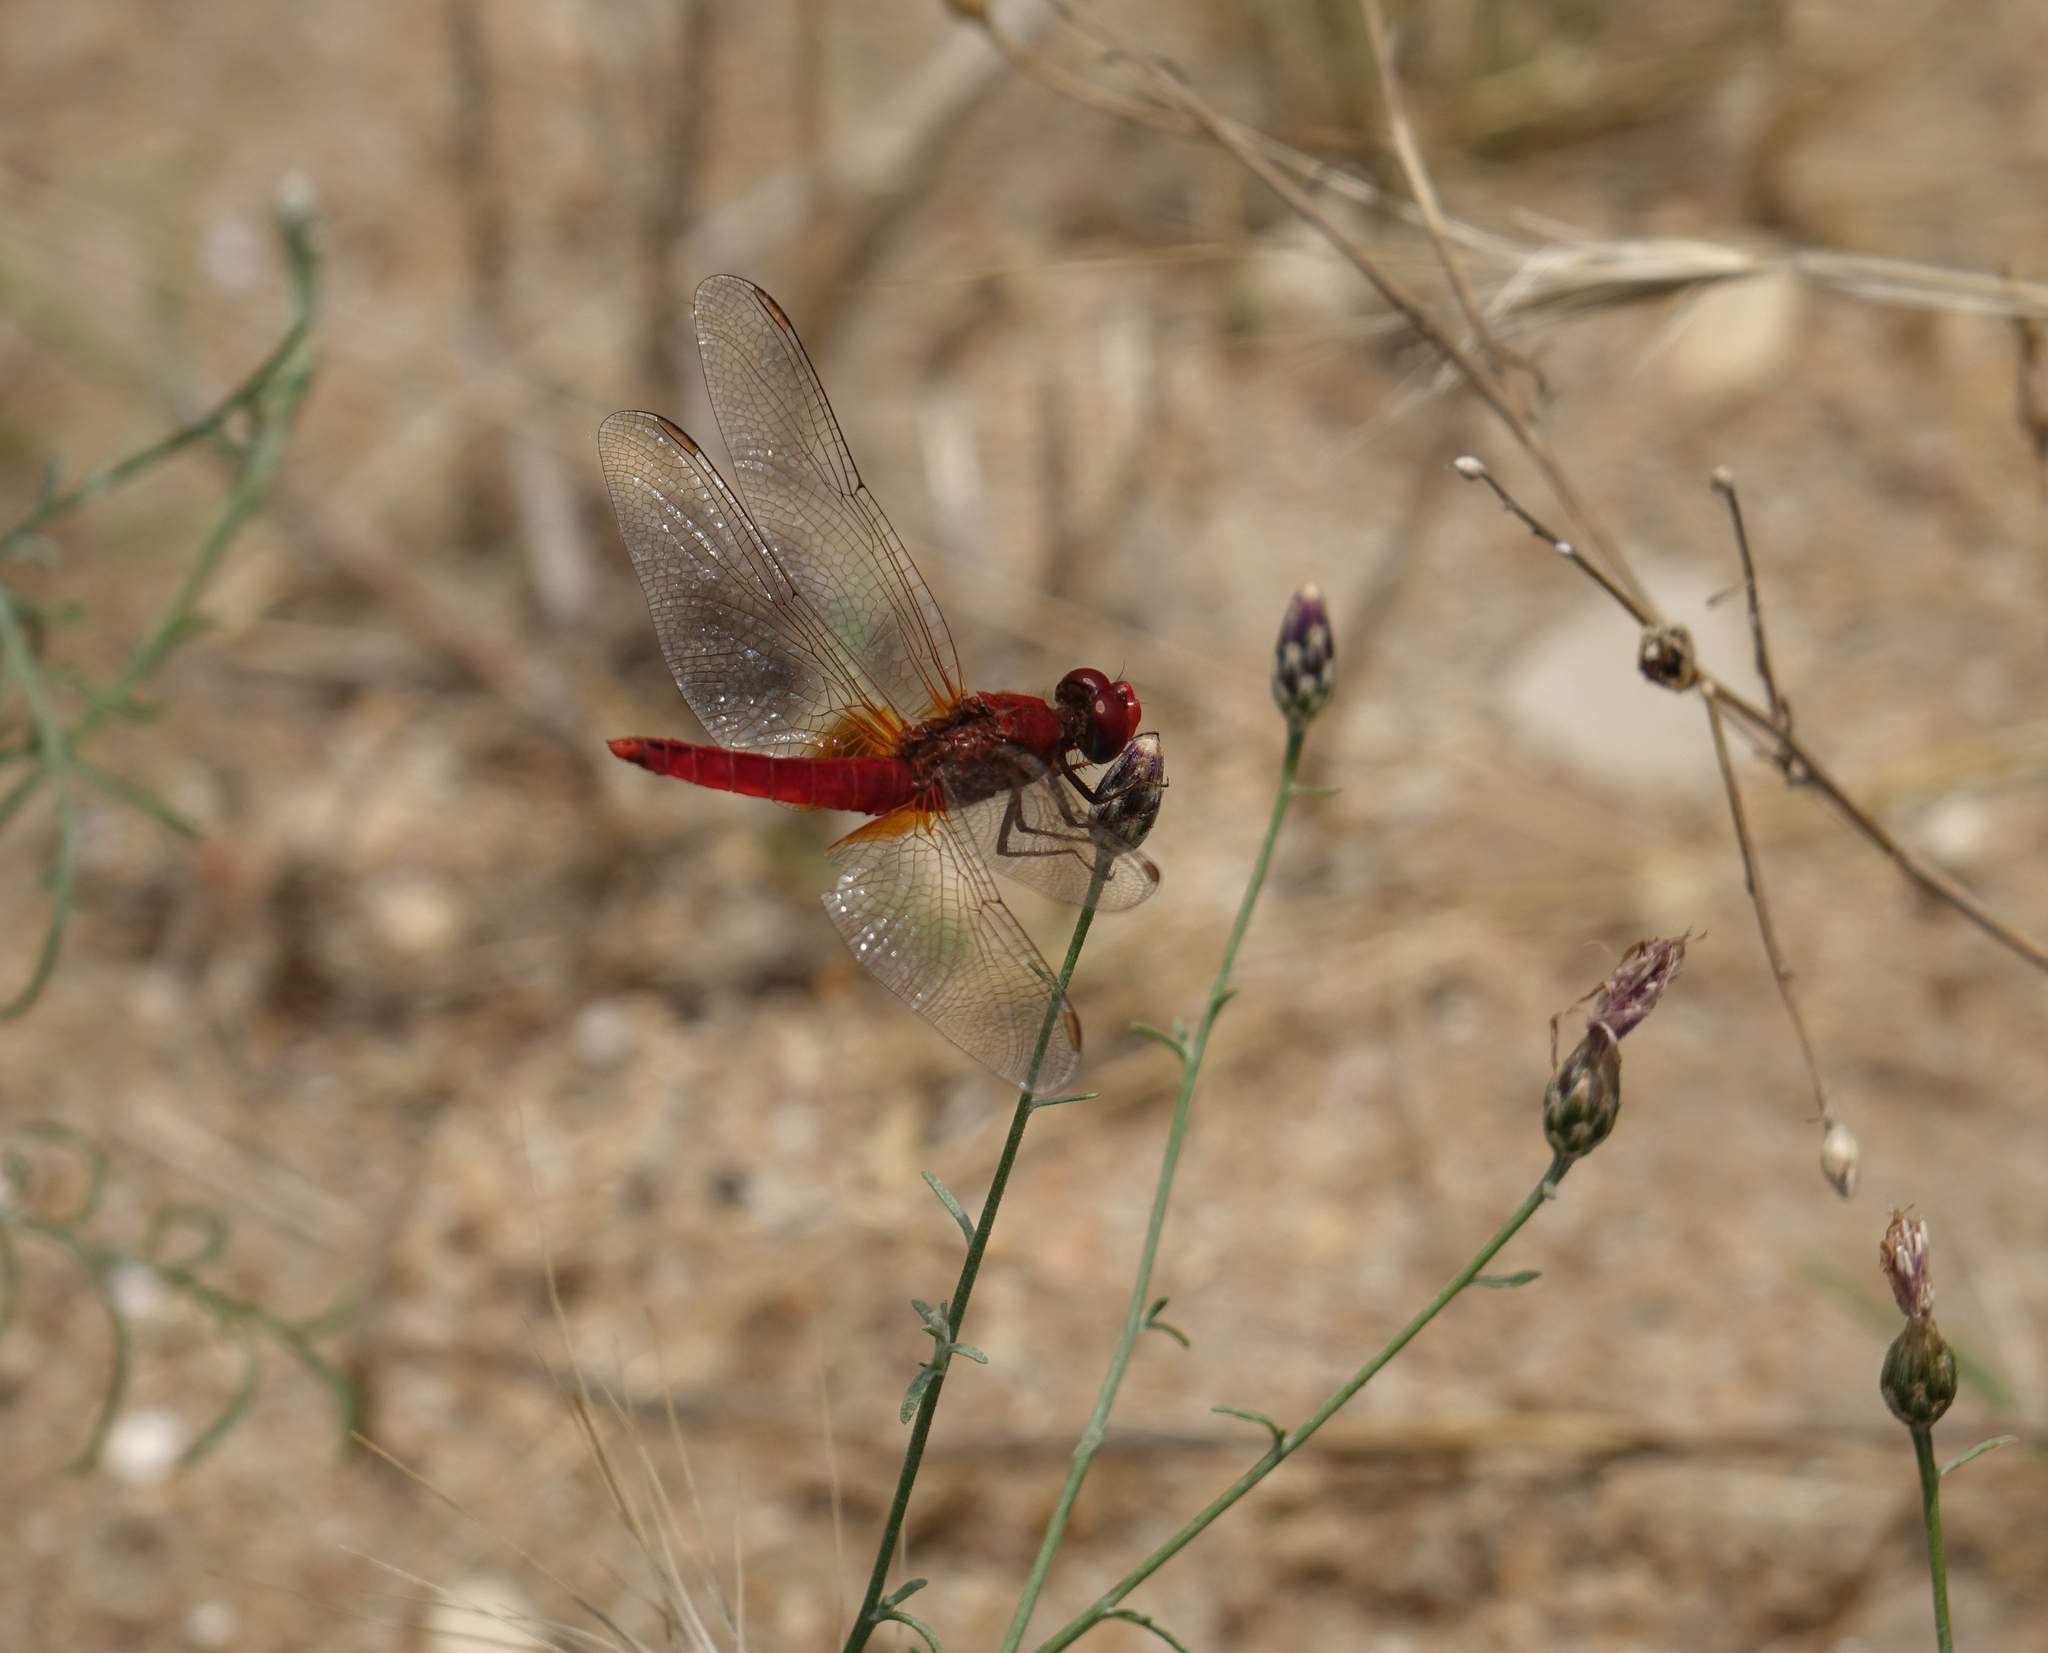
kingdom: Animalia
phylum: Arthropoda
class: Insecta
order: Odonata
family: Libellulidae
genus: Crocothemis
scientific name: Crocothemis erythraea
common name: Scarlet dragonfly
